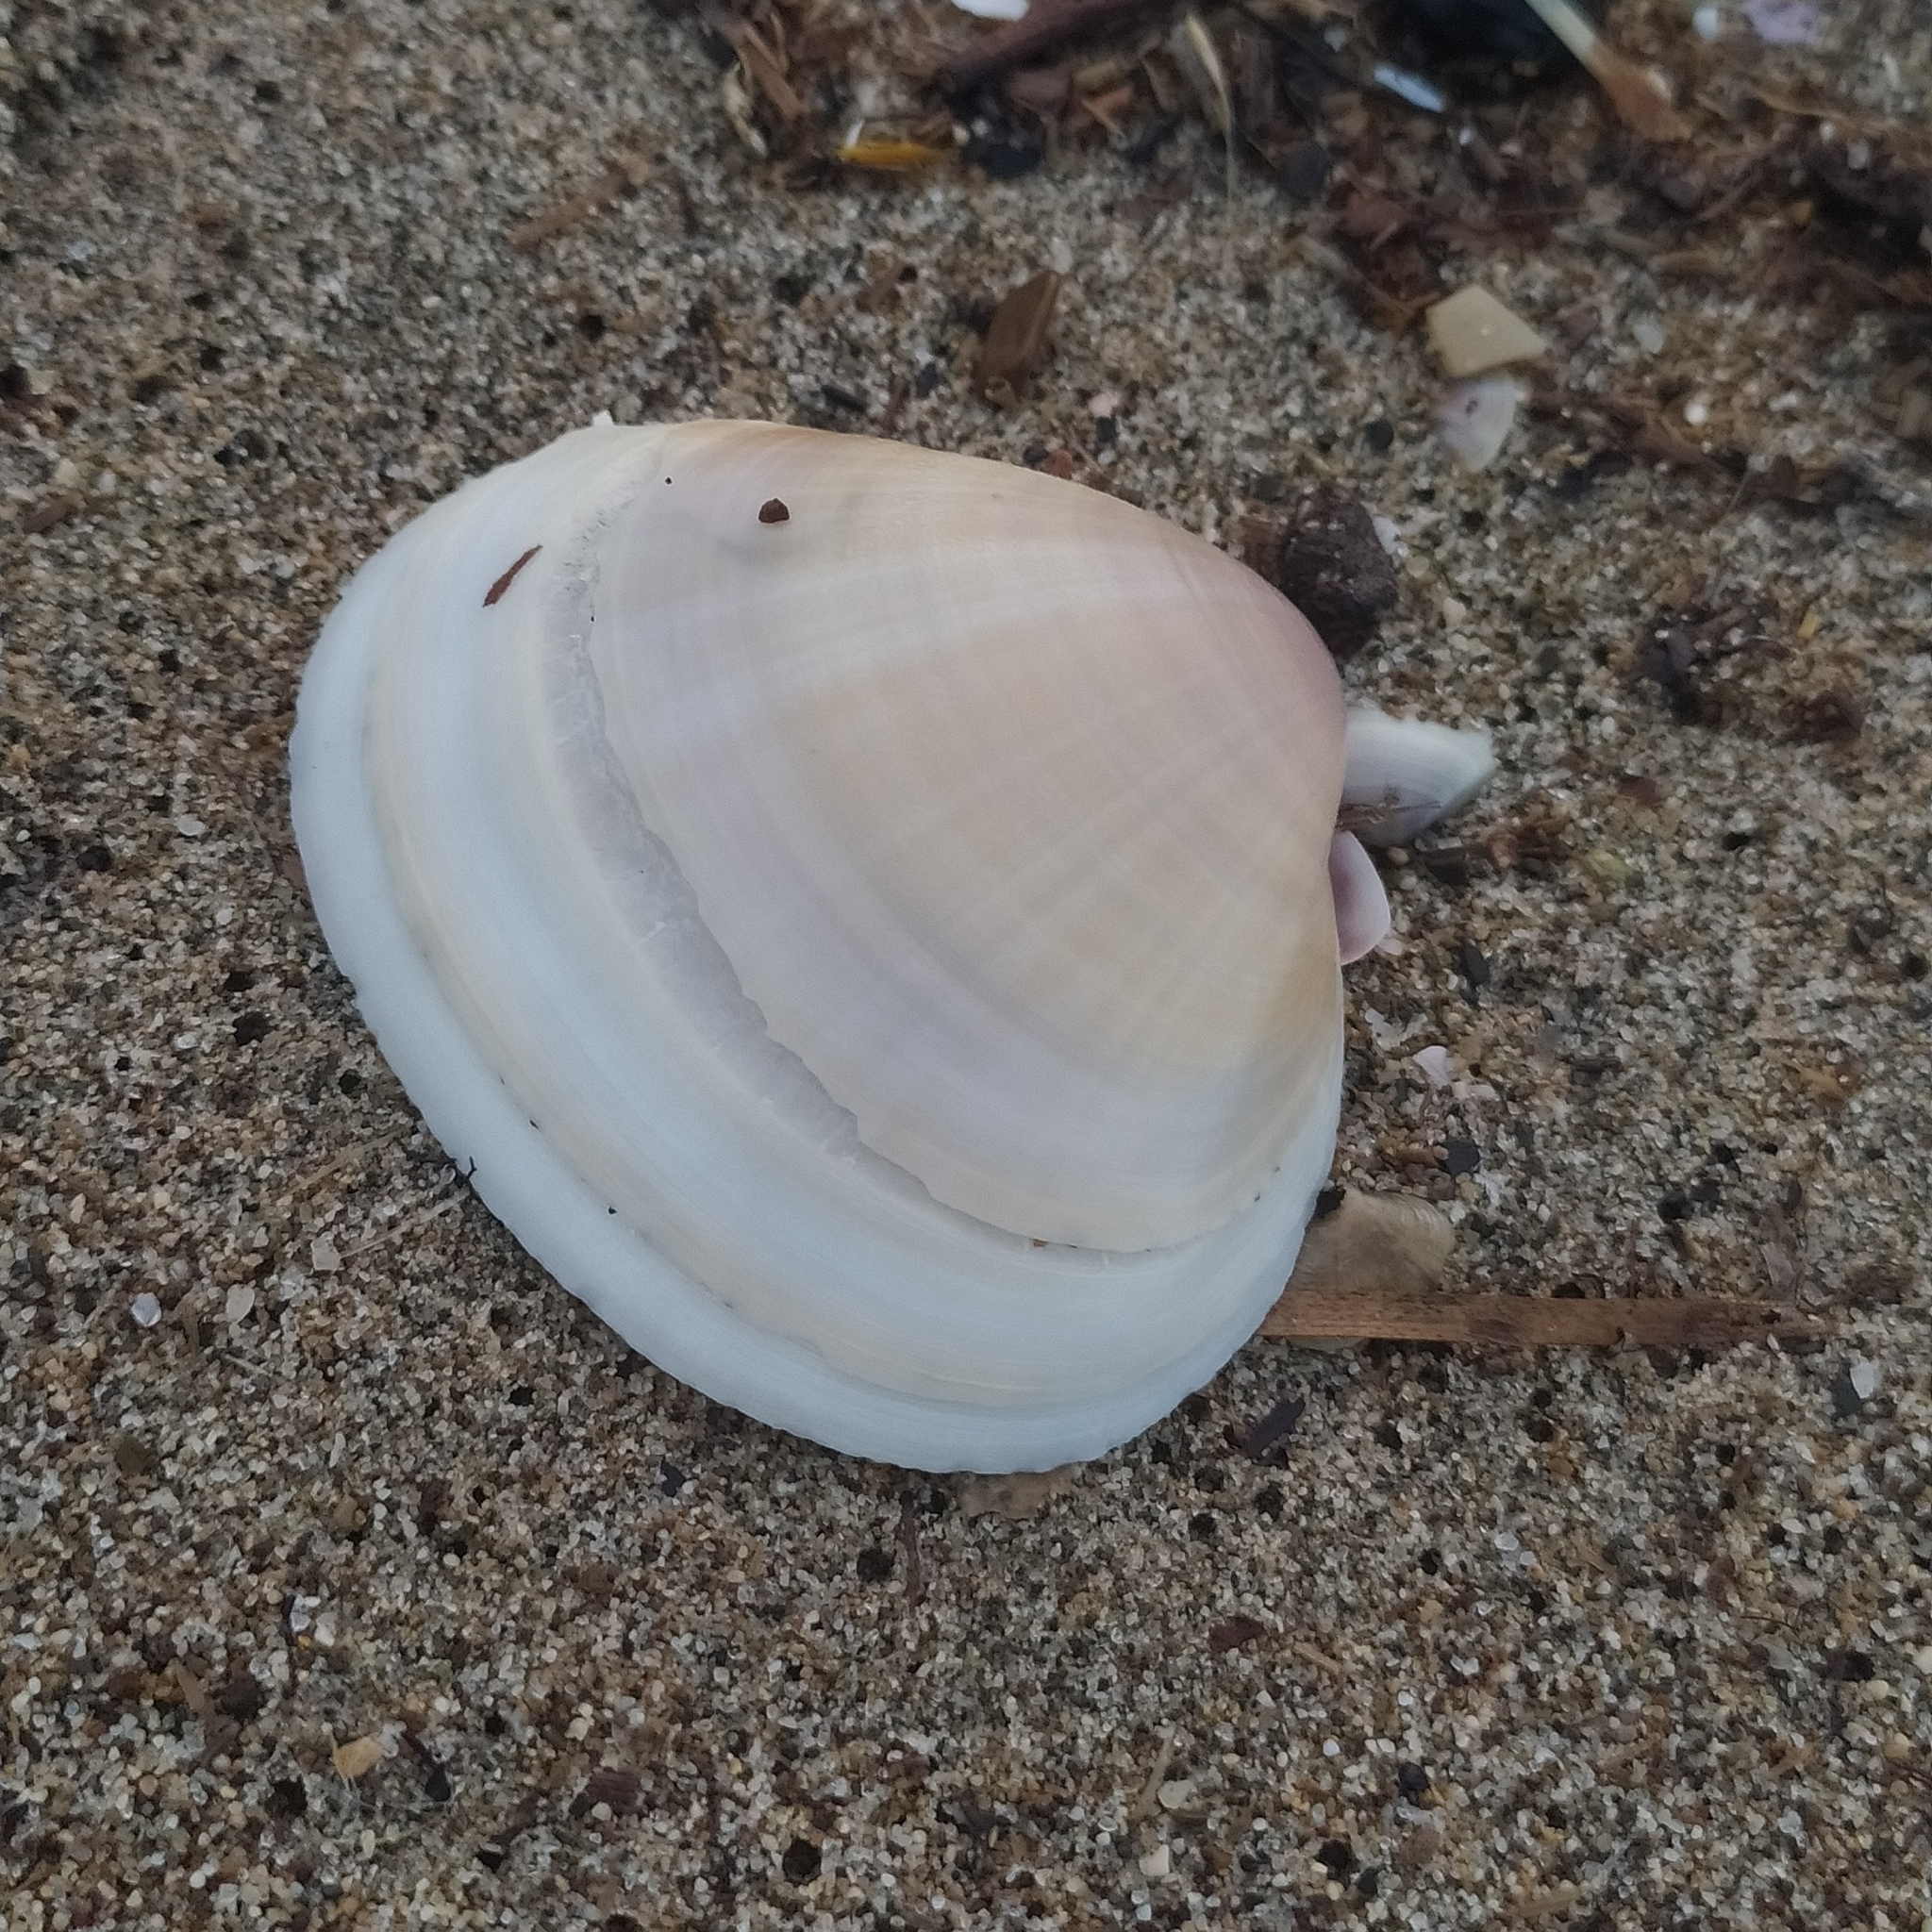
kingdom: Animalia
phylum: Mollusca
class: Bivalvia
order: Venerida
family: Mactridae
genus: Mactra
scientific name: Mactra stultorum
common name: Rayed trough shell
